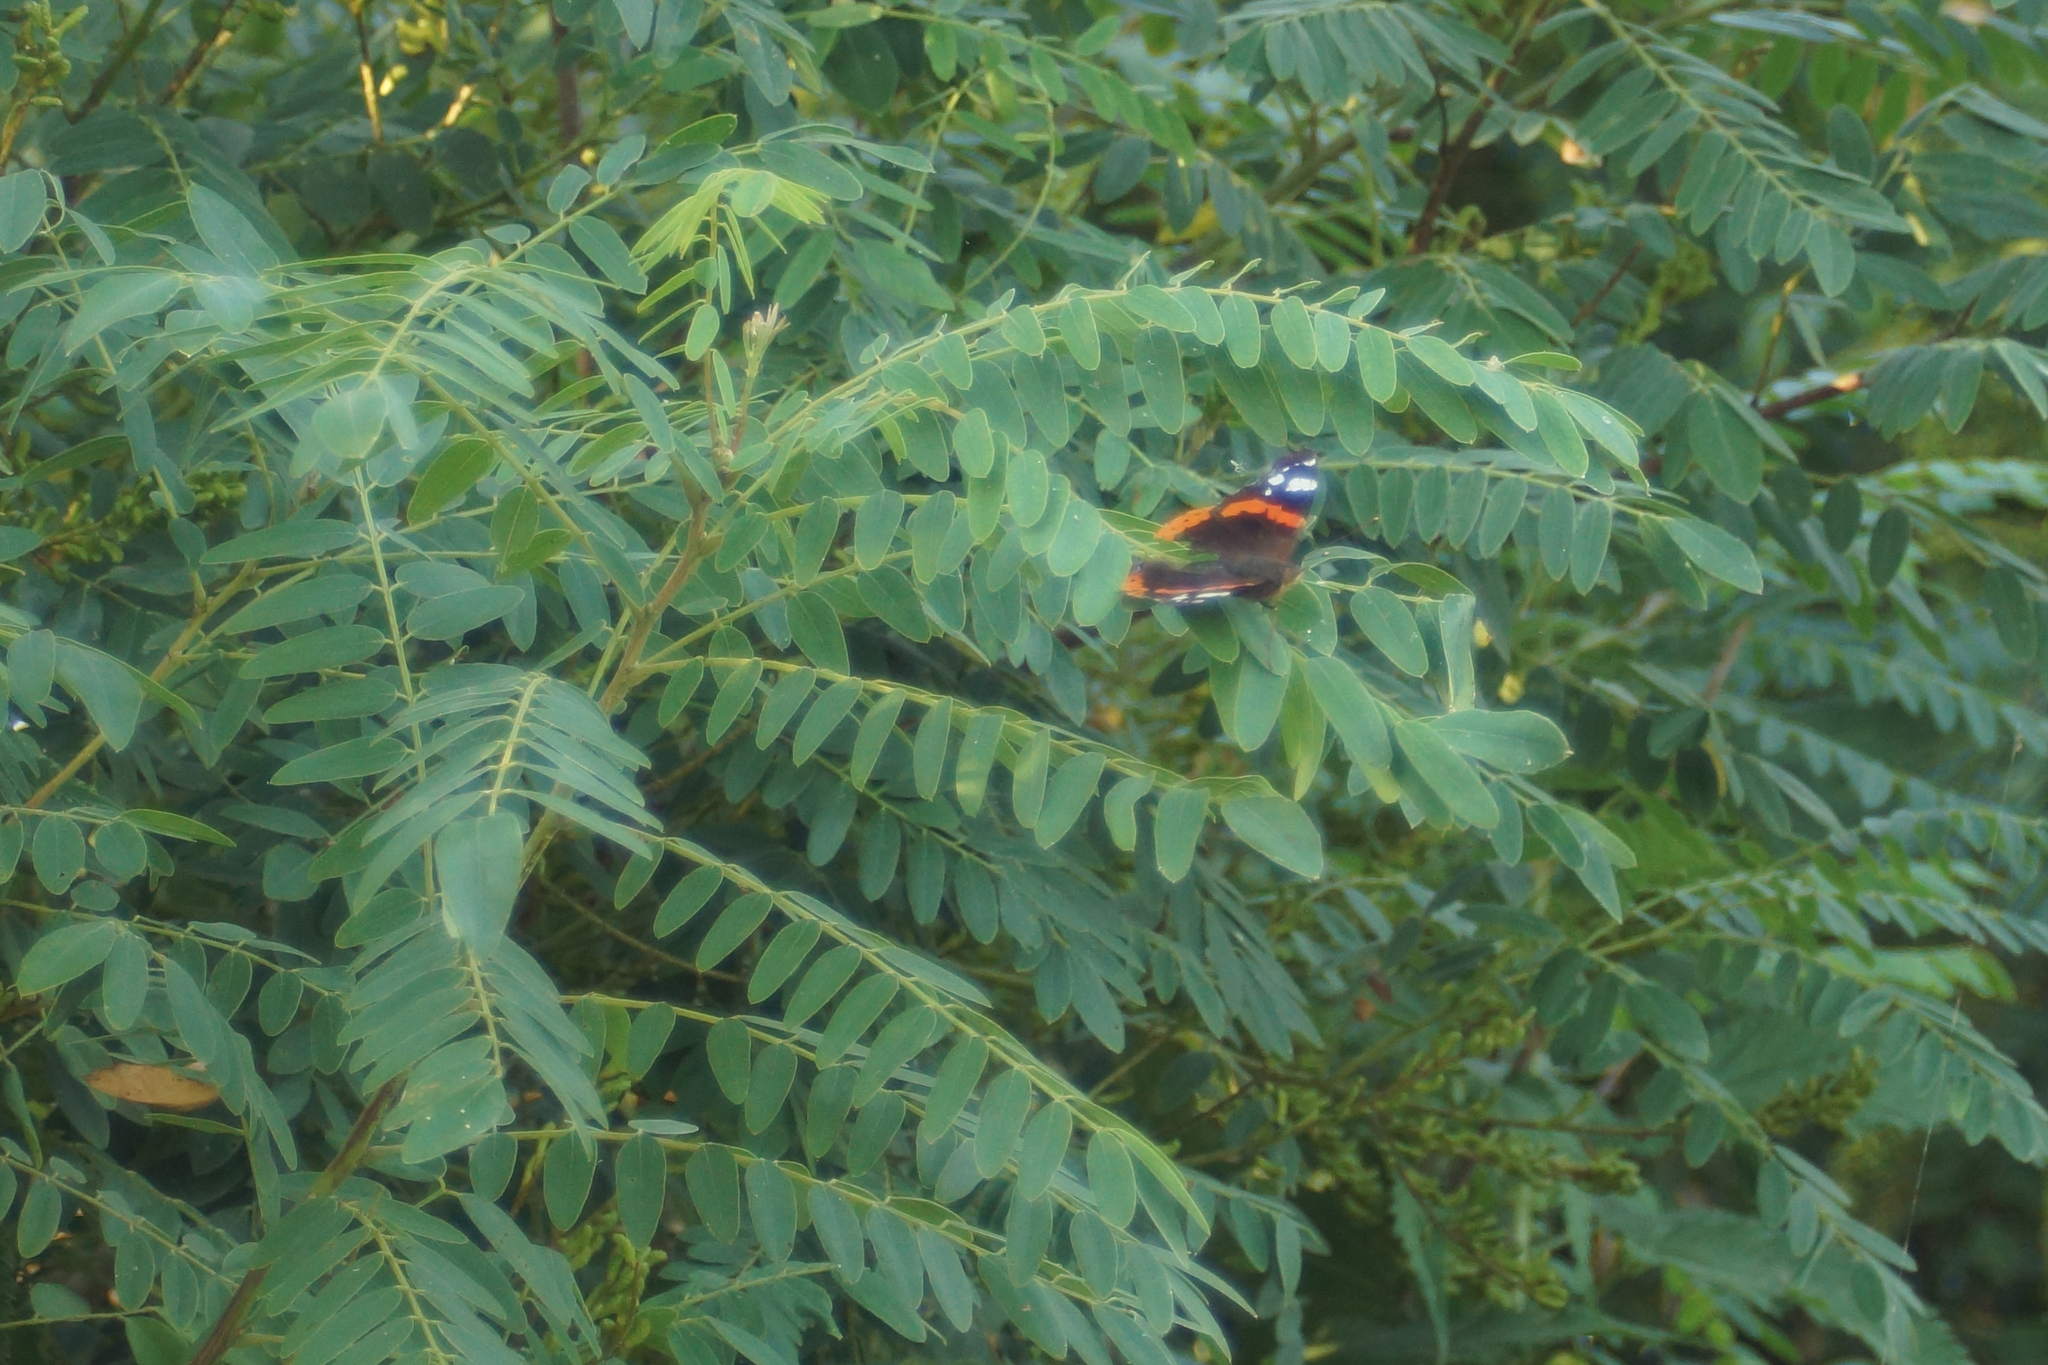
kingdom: Animalia
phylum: Arthropoda
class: Insecta
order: Lepidoptera
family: Nymphalidae
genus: Vanessa
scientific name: Vanessa atalanta
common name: Red admiral
